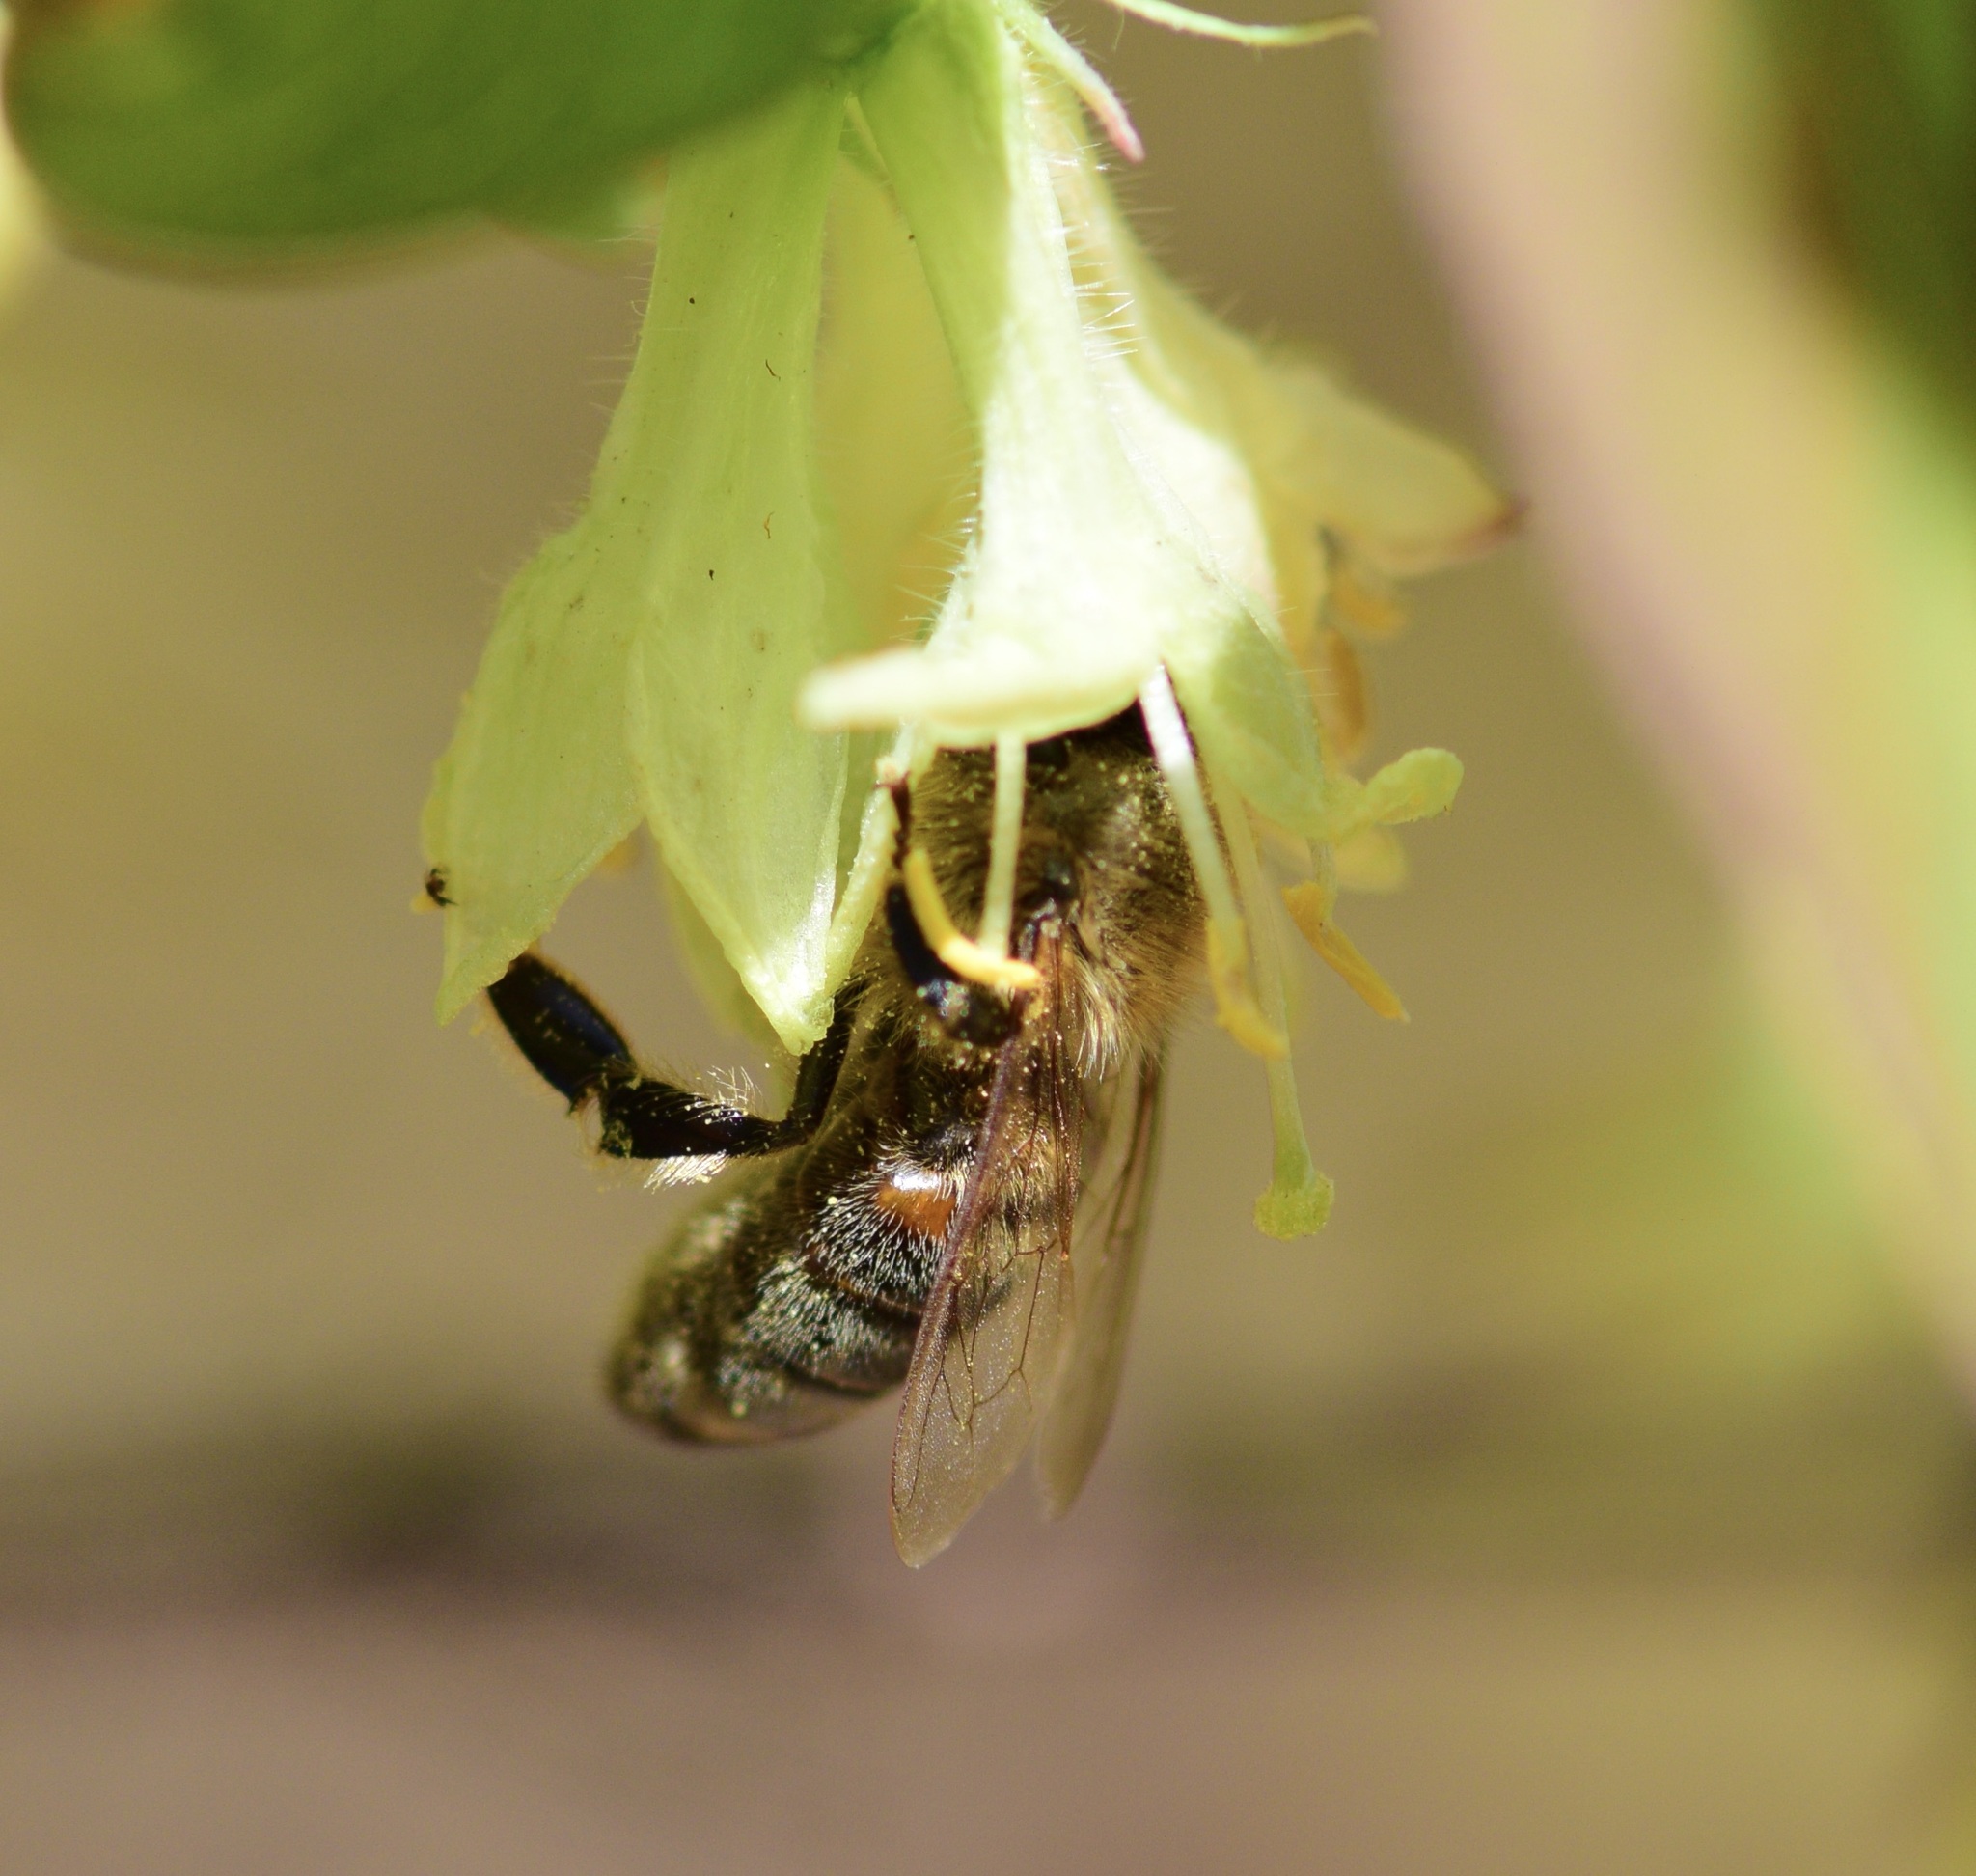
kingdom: Animalia
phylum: Arthropoda
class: Insecta
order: Hymenoptera
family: Apidae
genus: Apis
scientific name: Apis mellifera
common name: Honey bee
